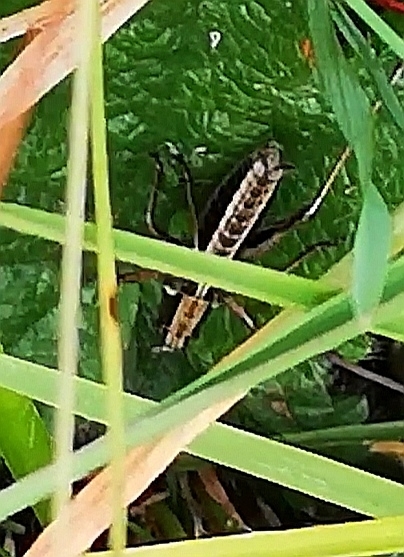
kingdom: Animalia
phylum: Arthropoda
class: Insecta
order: Orthoptera
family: Tettigoniidae
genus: Metrioptera
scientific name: Metrioptera brachyptera
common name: Bog bush-cricket
